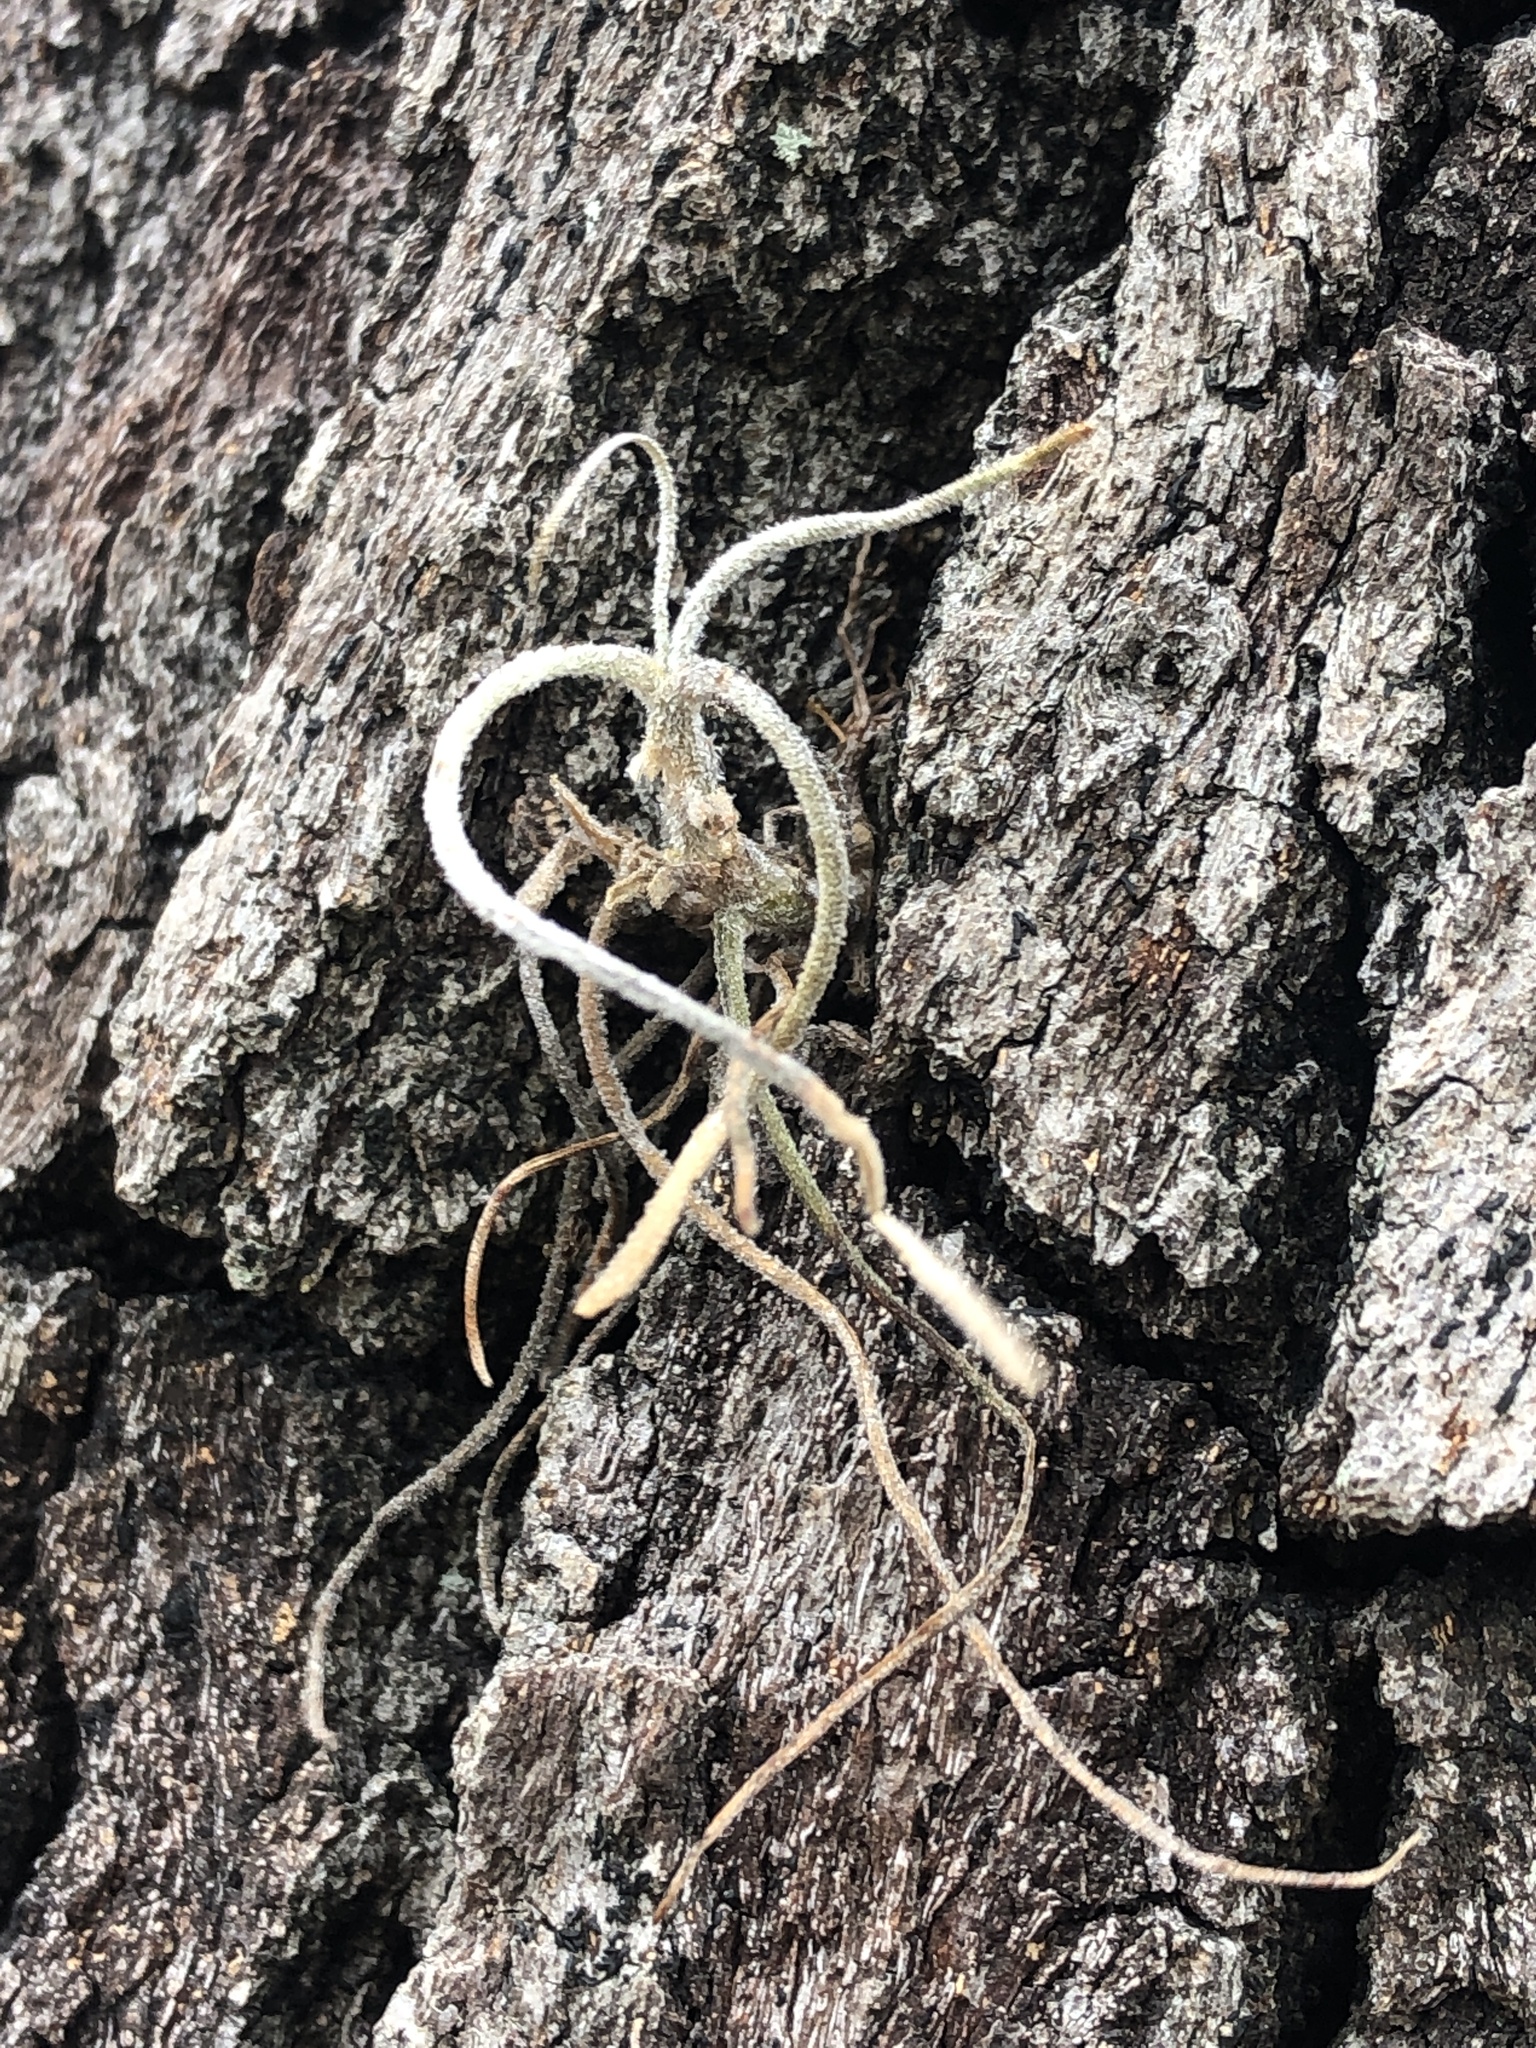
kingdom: Plantae
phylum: Tracheophyta
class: Liliopsida
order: Poales
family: Bromeliaceae
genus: Tillandsia
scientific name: Tillandsia recurvata
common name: Small ballmoss
